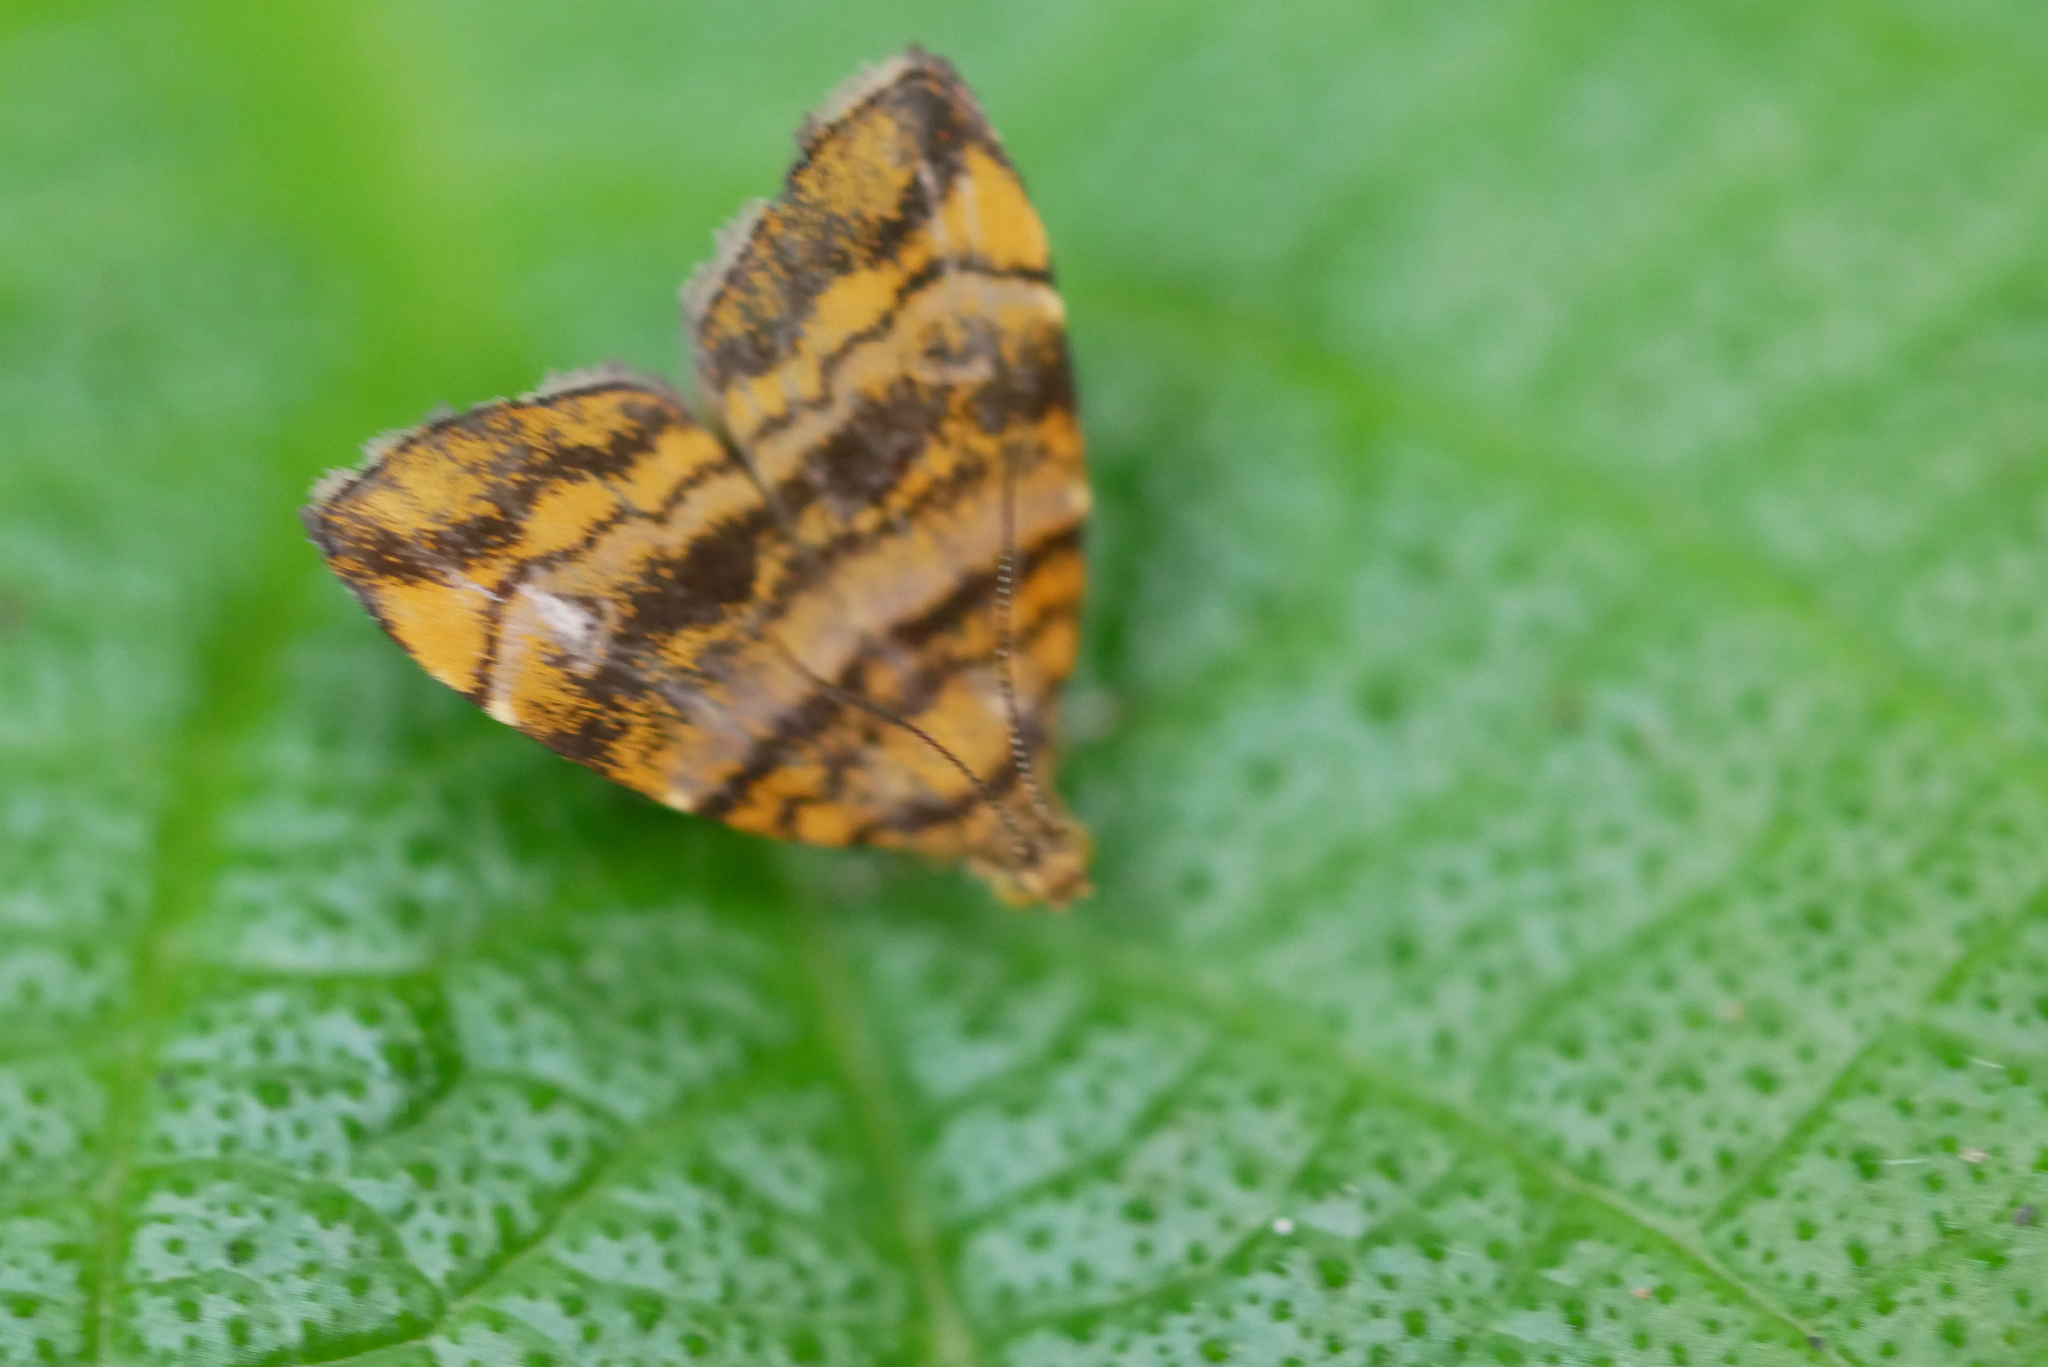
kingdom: Animalia
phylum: Arthropoda
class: Insecta
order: Lepidoptera
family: Choreutidae
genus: Anthophila
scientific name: Anthophila amethystodes
